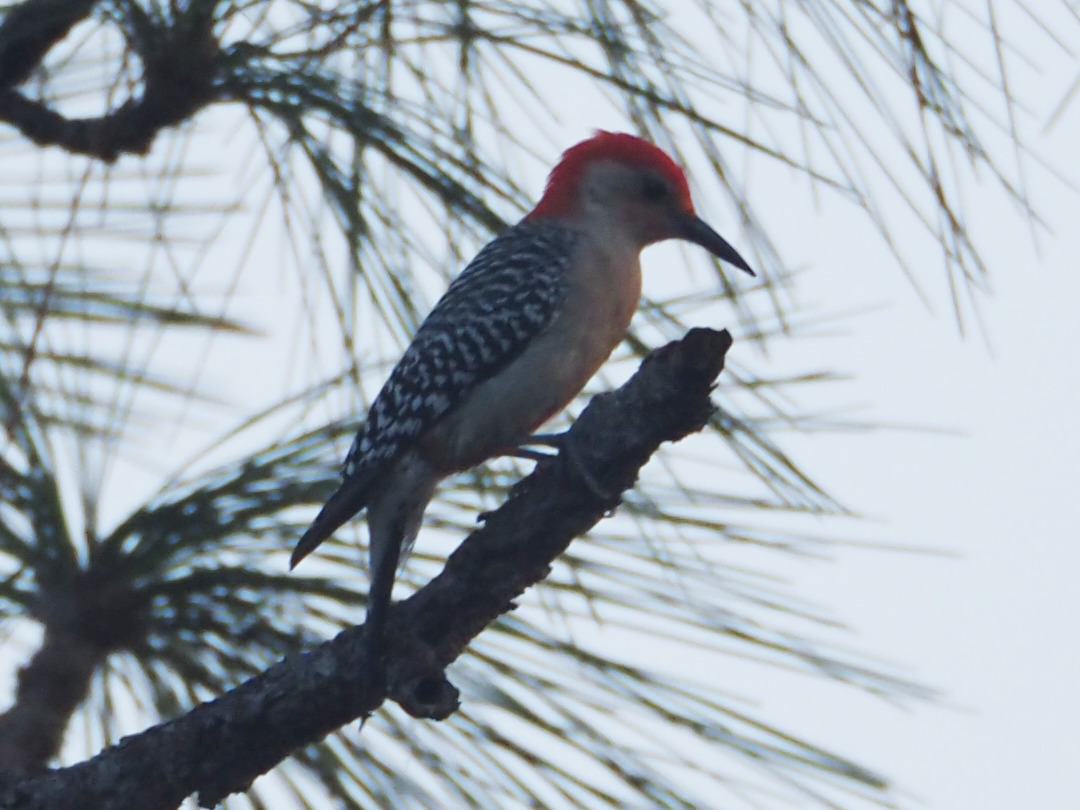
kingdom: Animalia
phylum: Chordata
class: Aves
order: Piciformes
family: Picidae
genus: Melanerpes
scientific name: Melanerpes carolinus
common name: Red-bellied woodpecker
